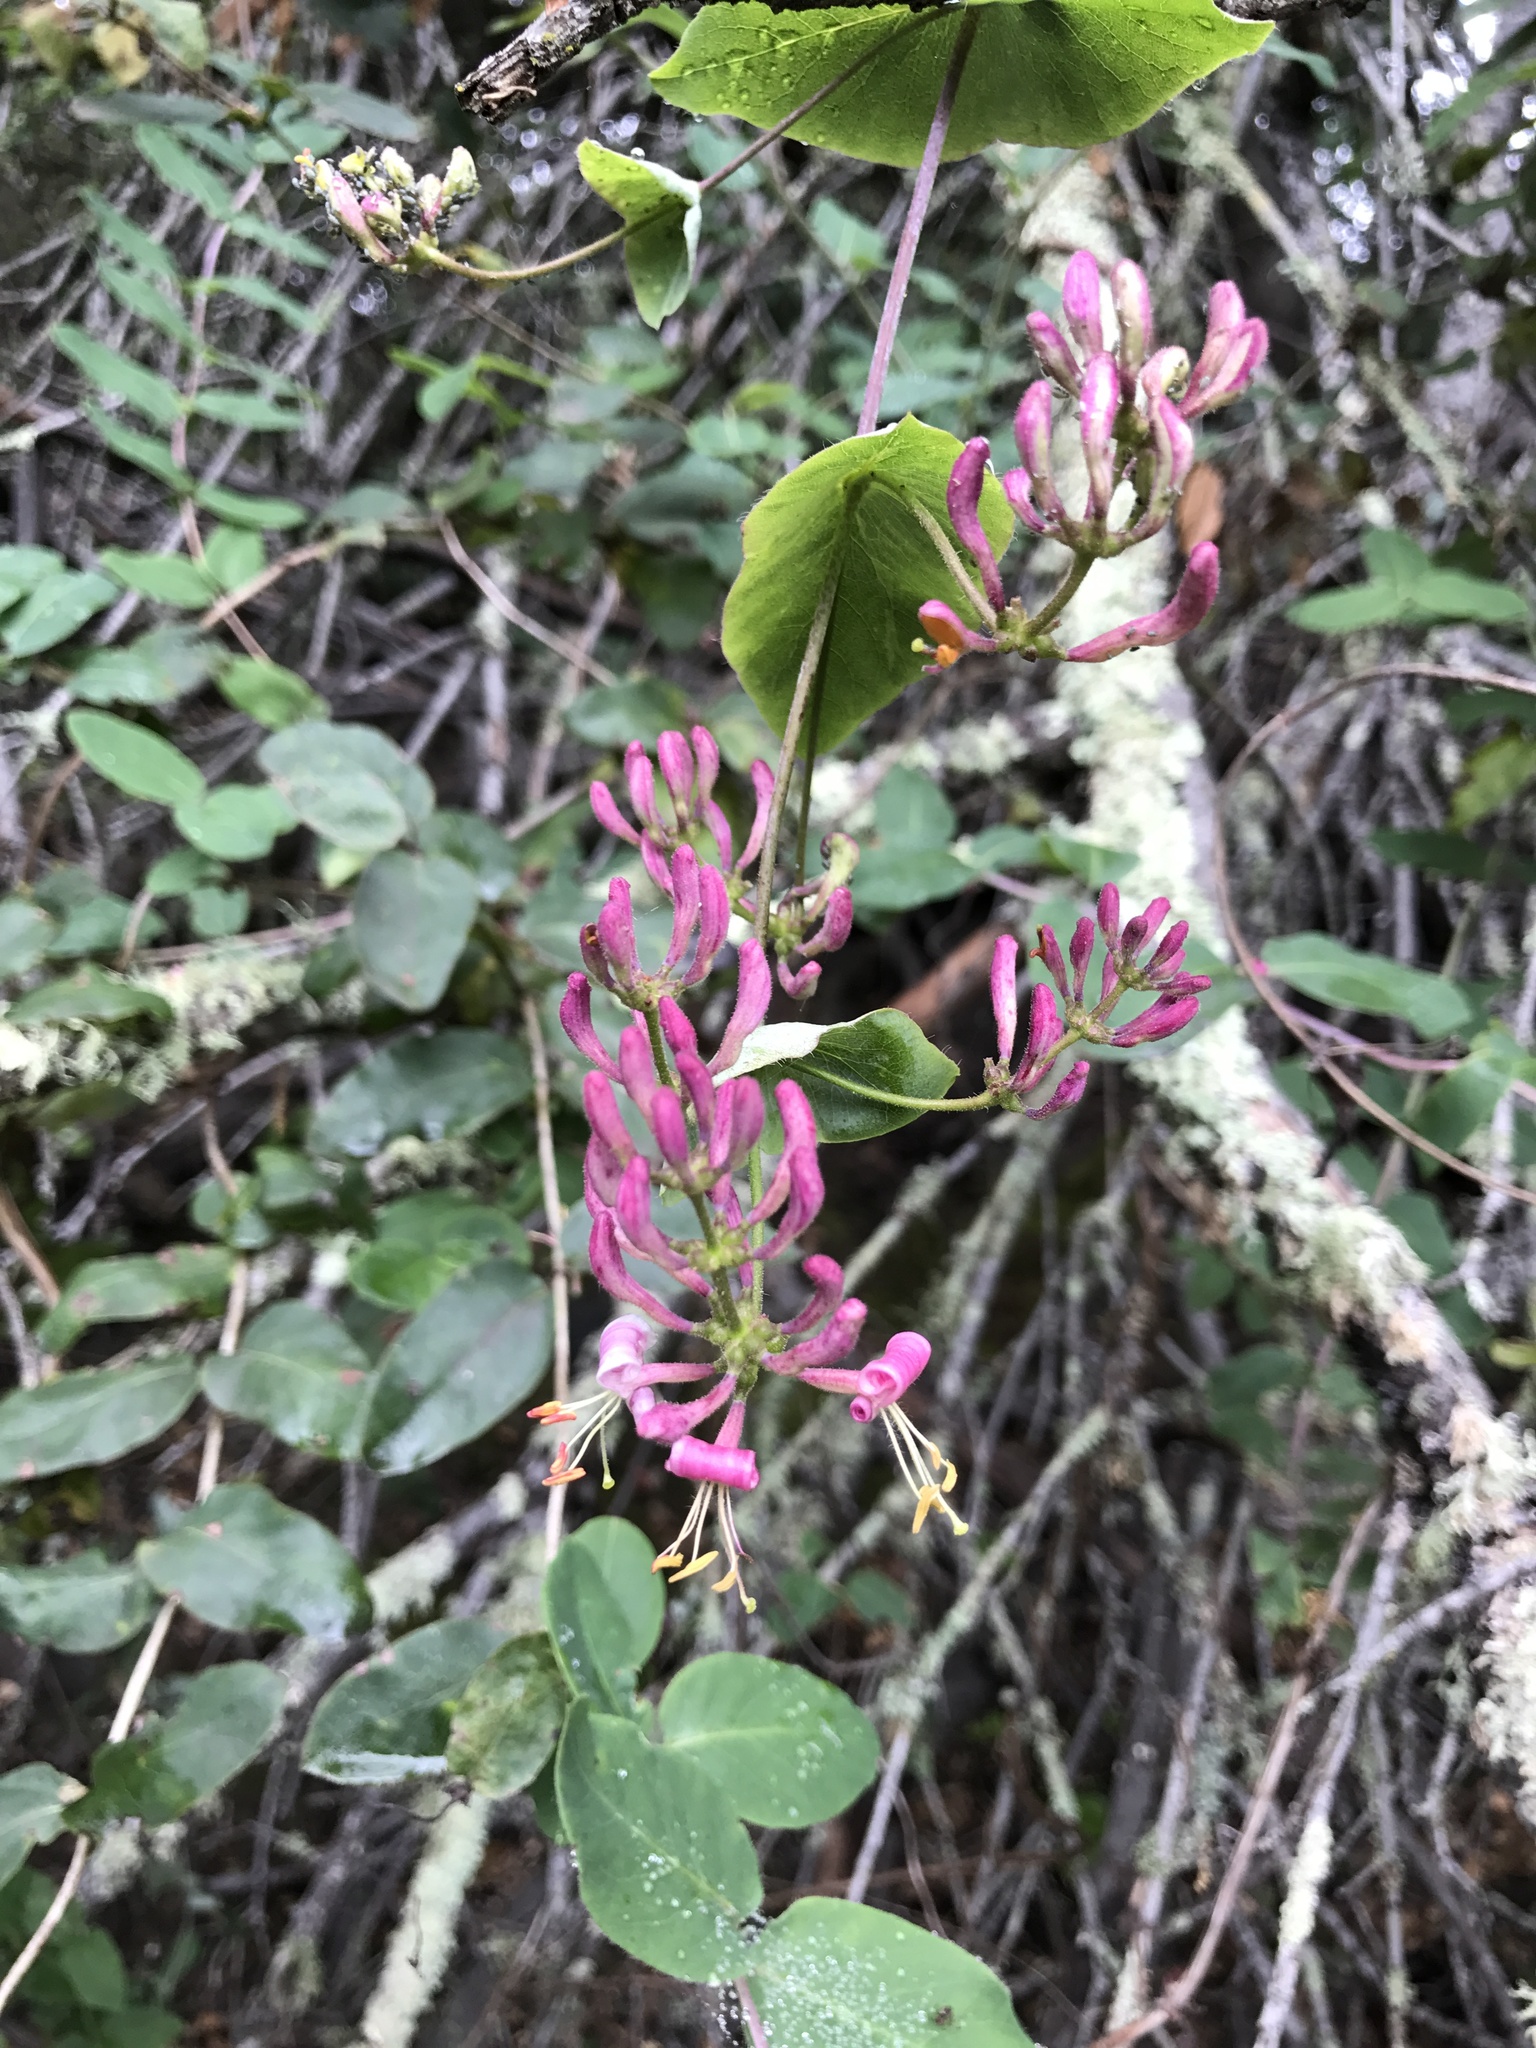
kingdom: Plantae
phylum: Tracheophyta
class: Magnoliopsida
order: Dipsacales
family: Caprifoliaceae
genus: Lonicera
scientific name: Lonicera hispidula
